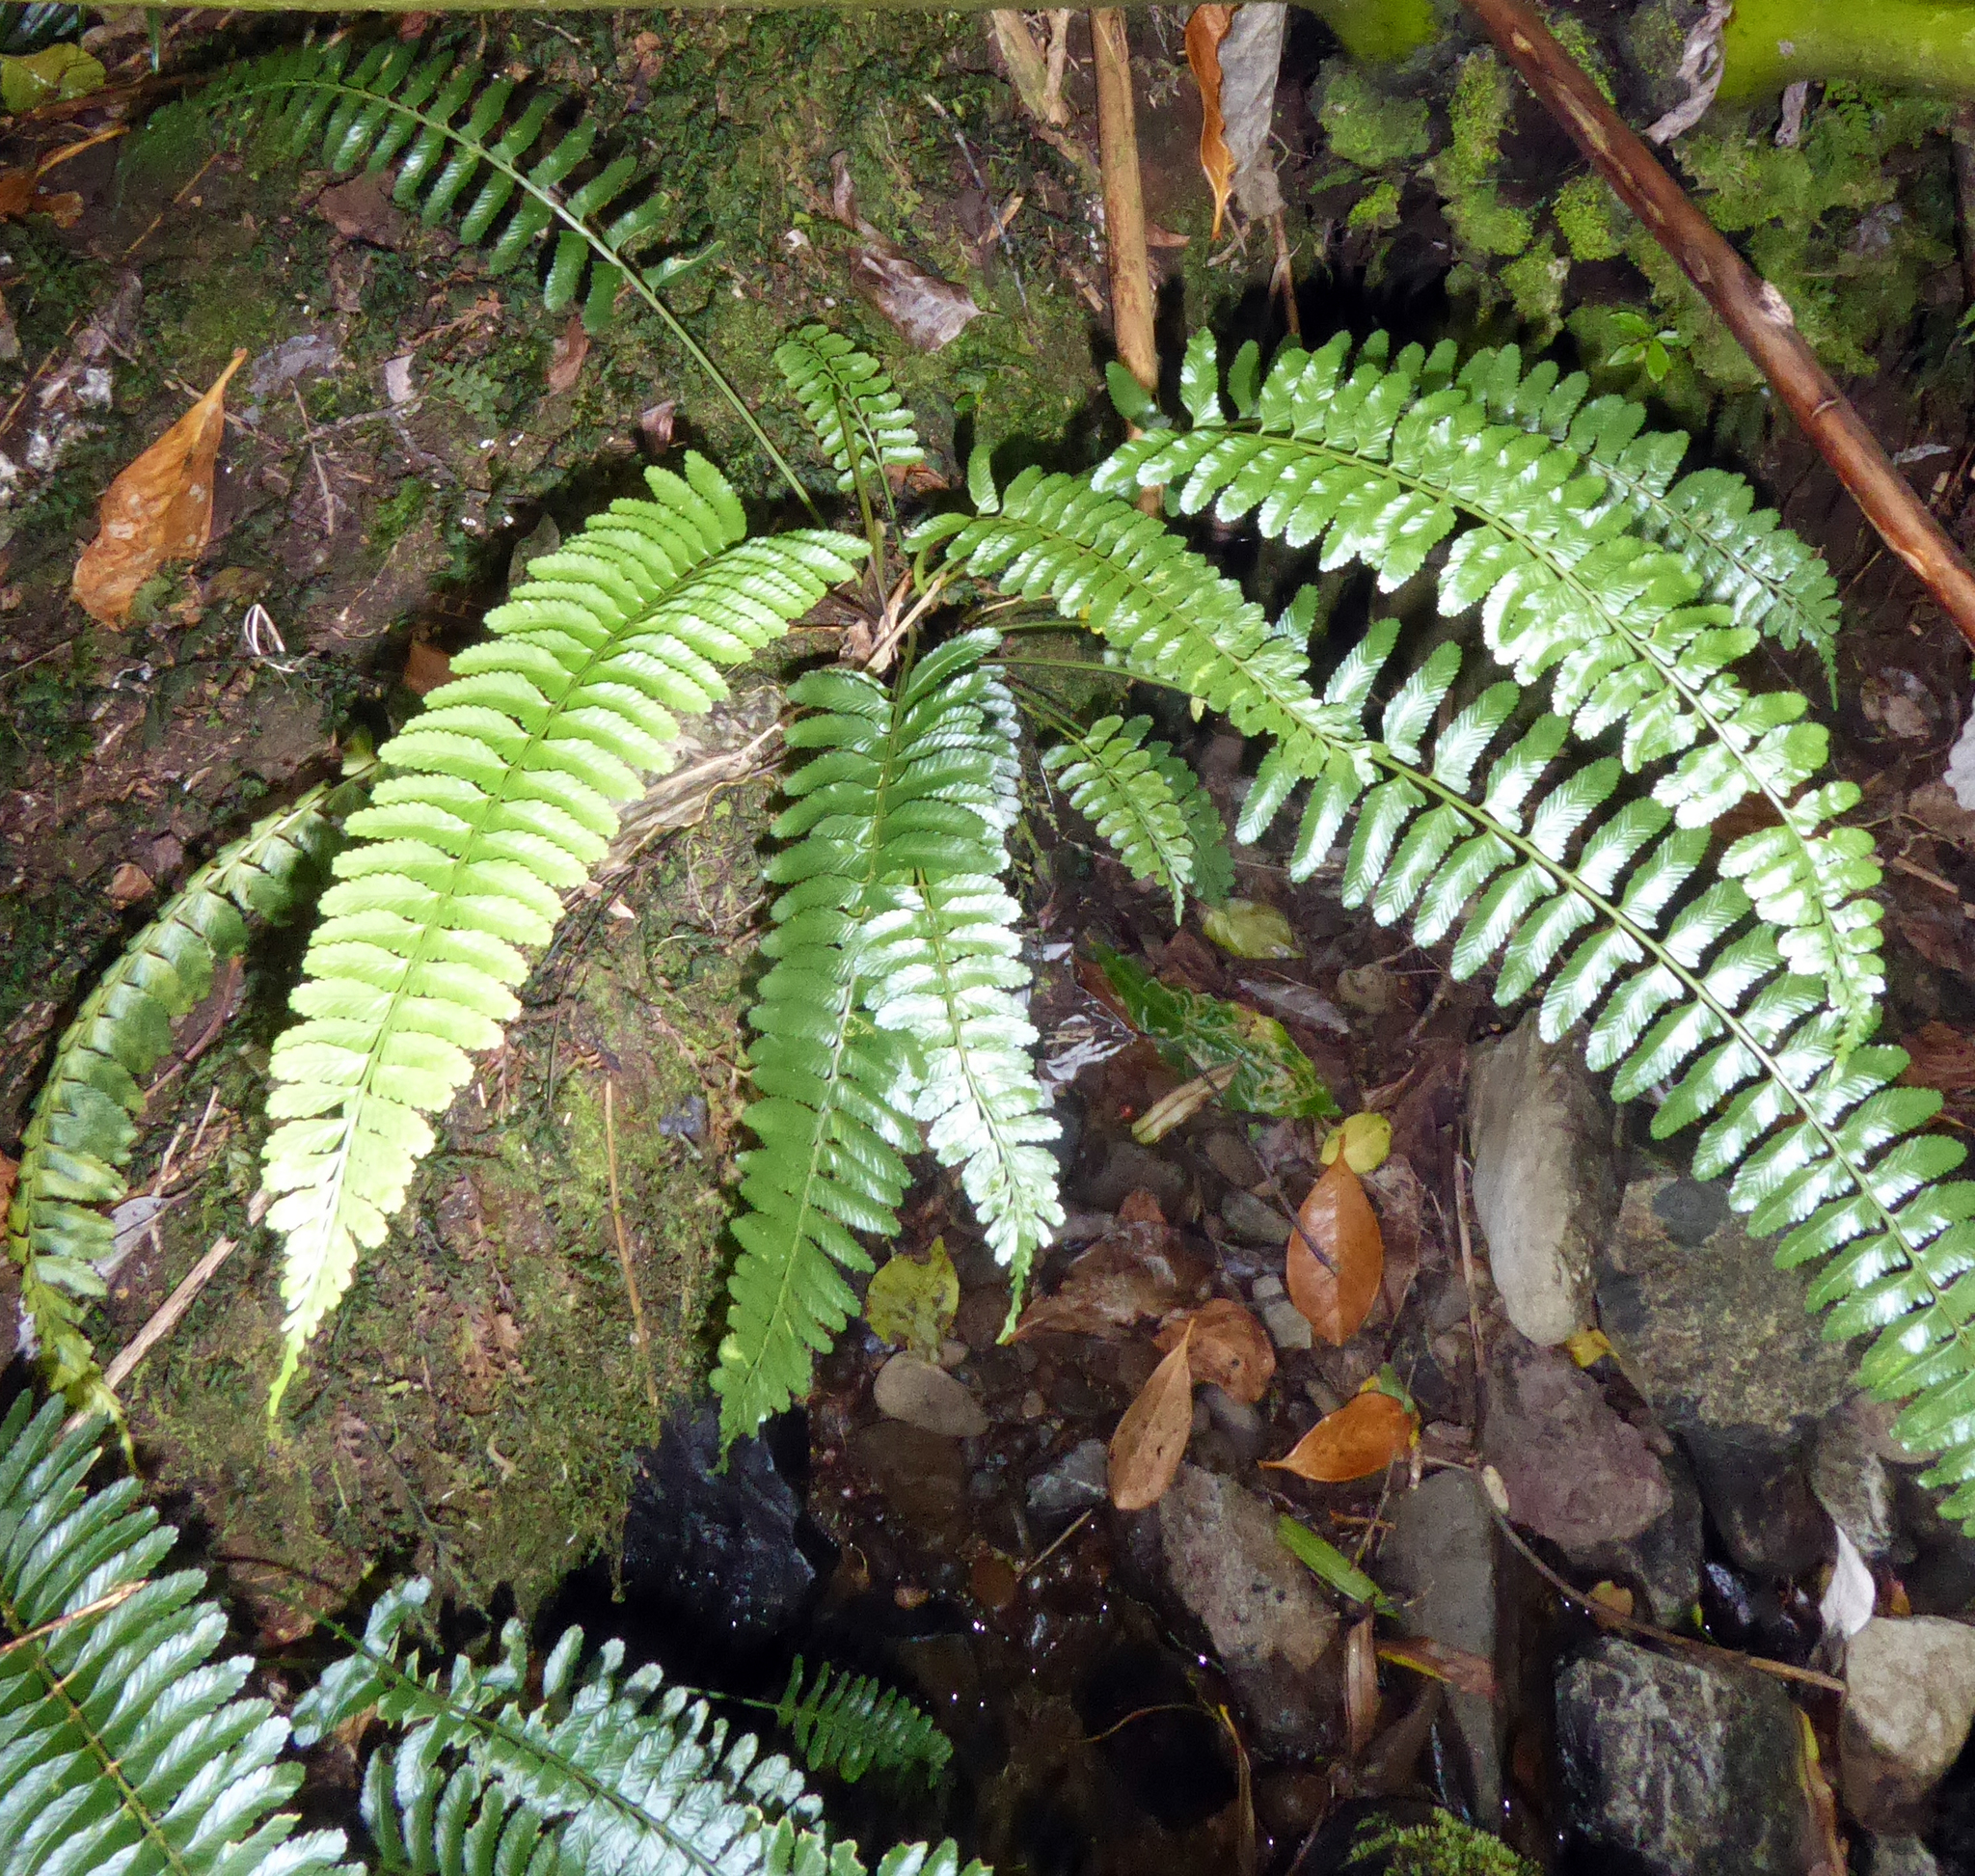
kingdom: Plantae
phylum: Tracheophyta
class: Polypodiopsida
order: Polypodiales
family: Aspleniaceae
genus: Asplenium
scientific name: Asplenium tenerum
